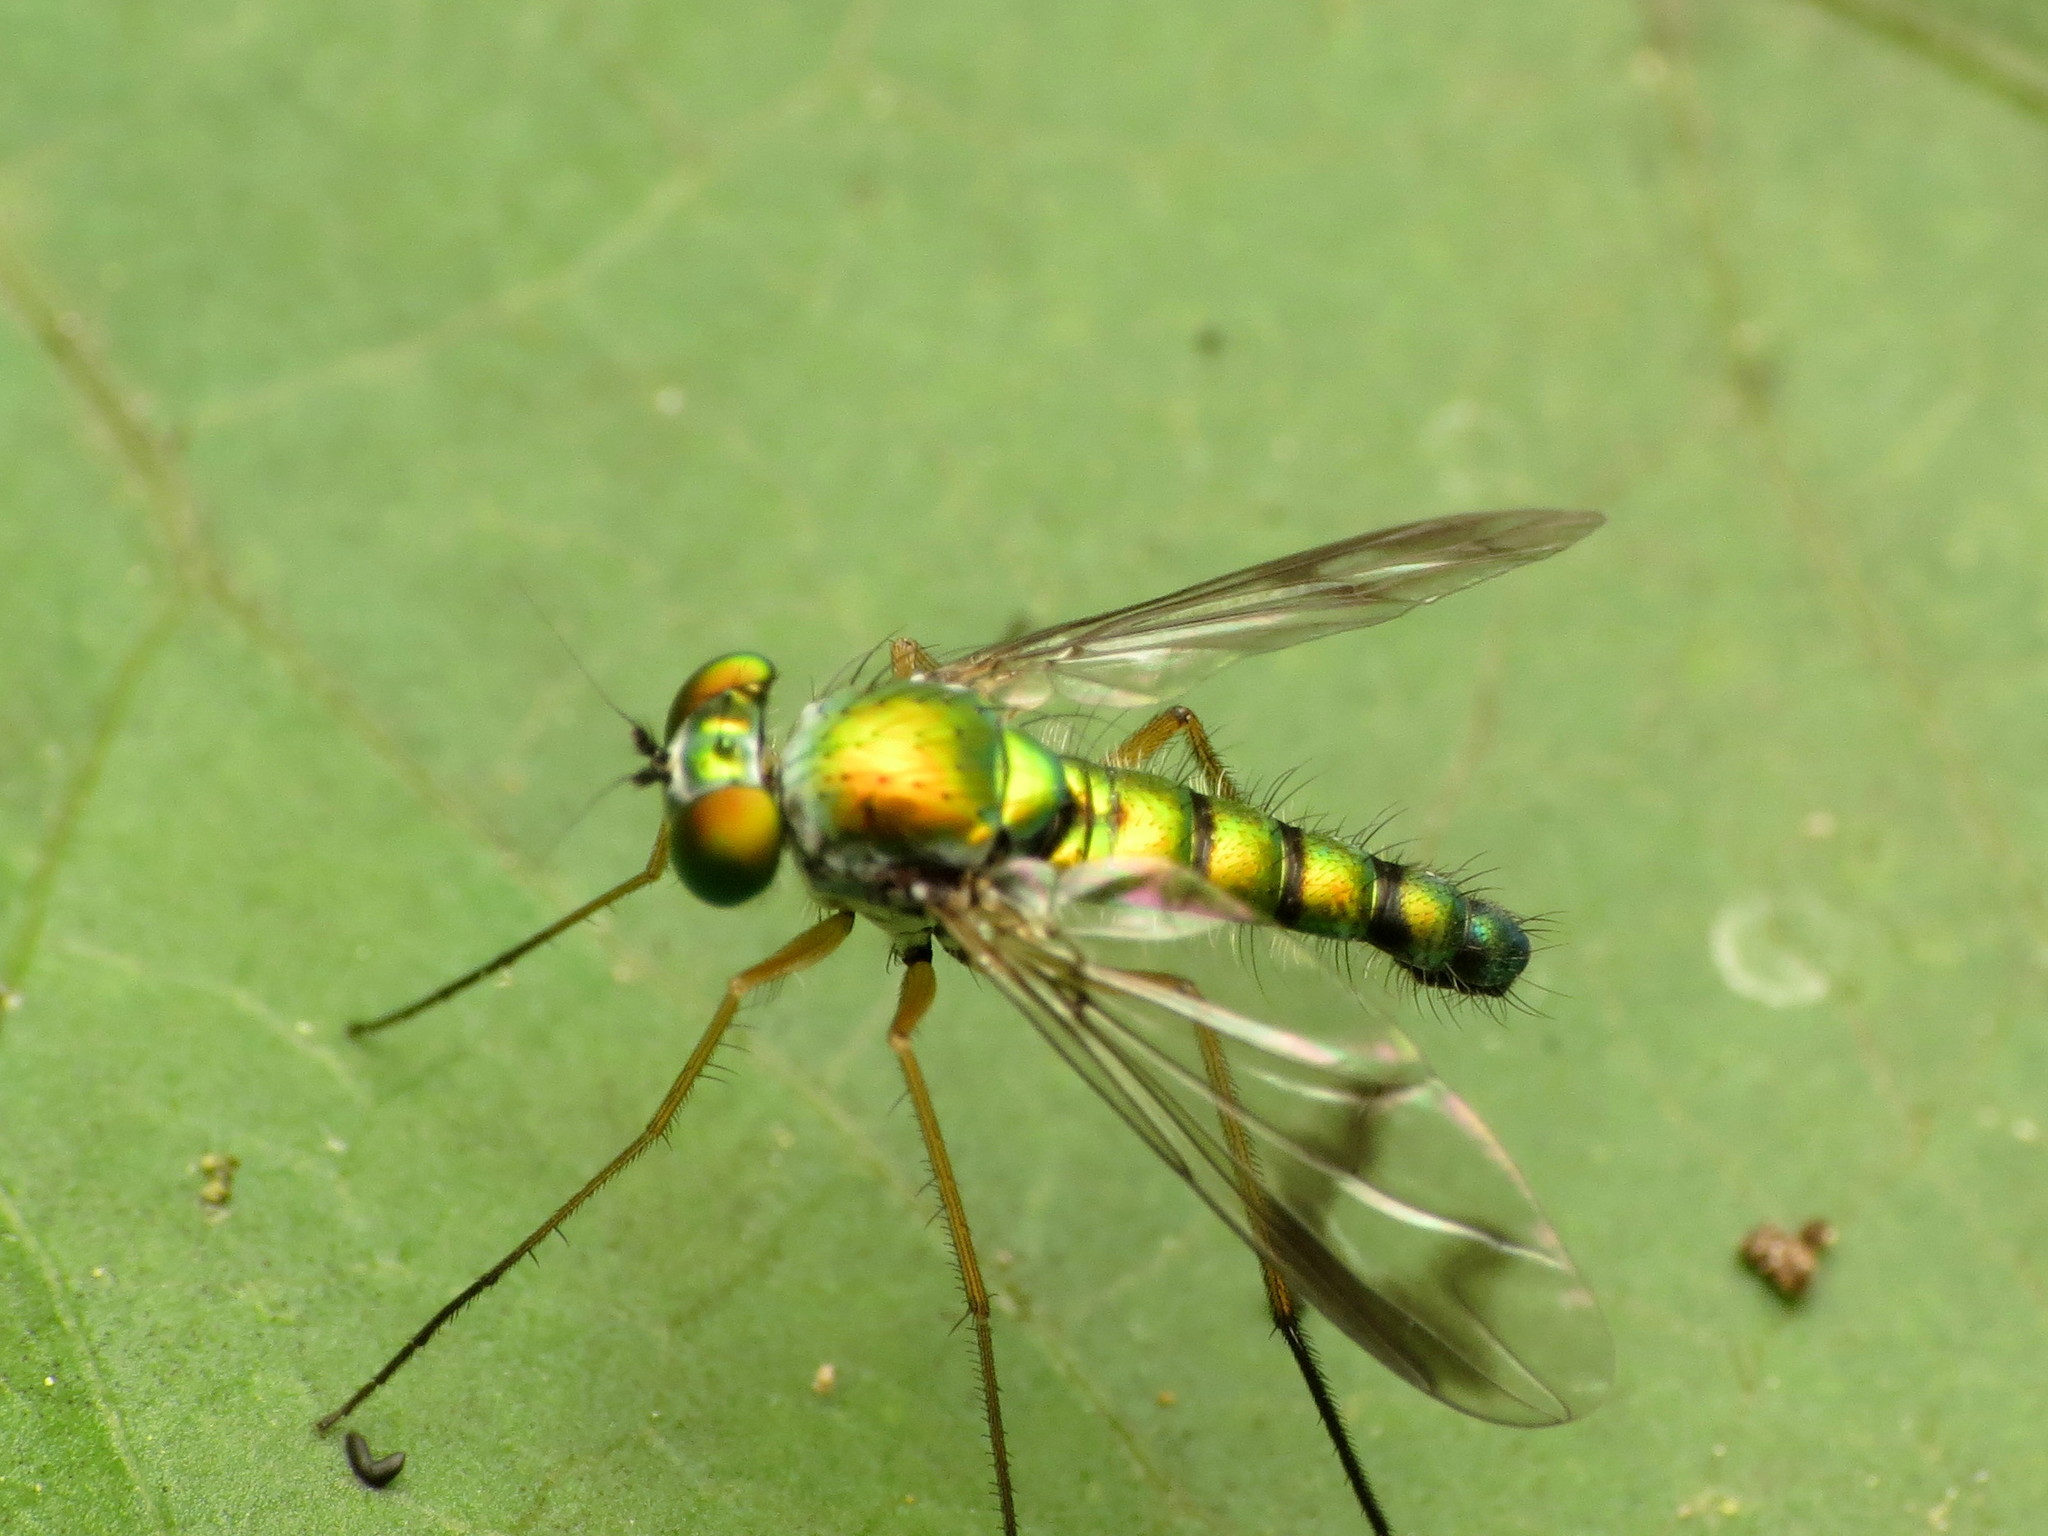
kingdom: Animalia
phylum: Arthropoda
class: Insecta
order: Diptera
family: Dolichopodidae
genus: Condylostylus
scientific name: Condylostylus
